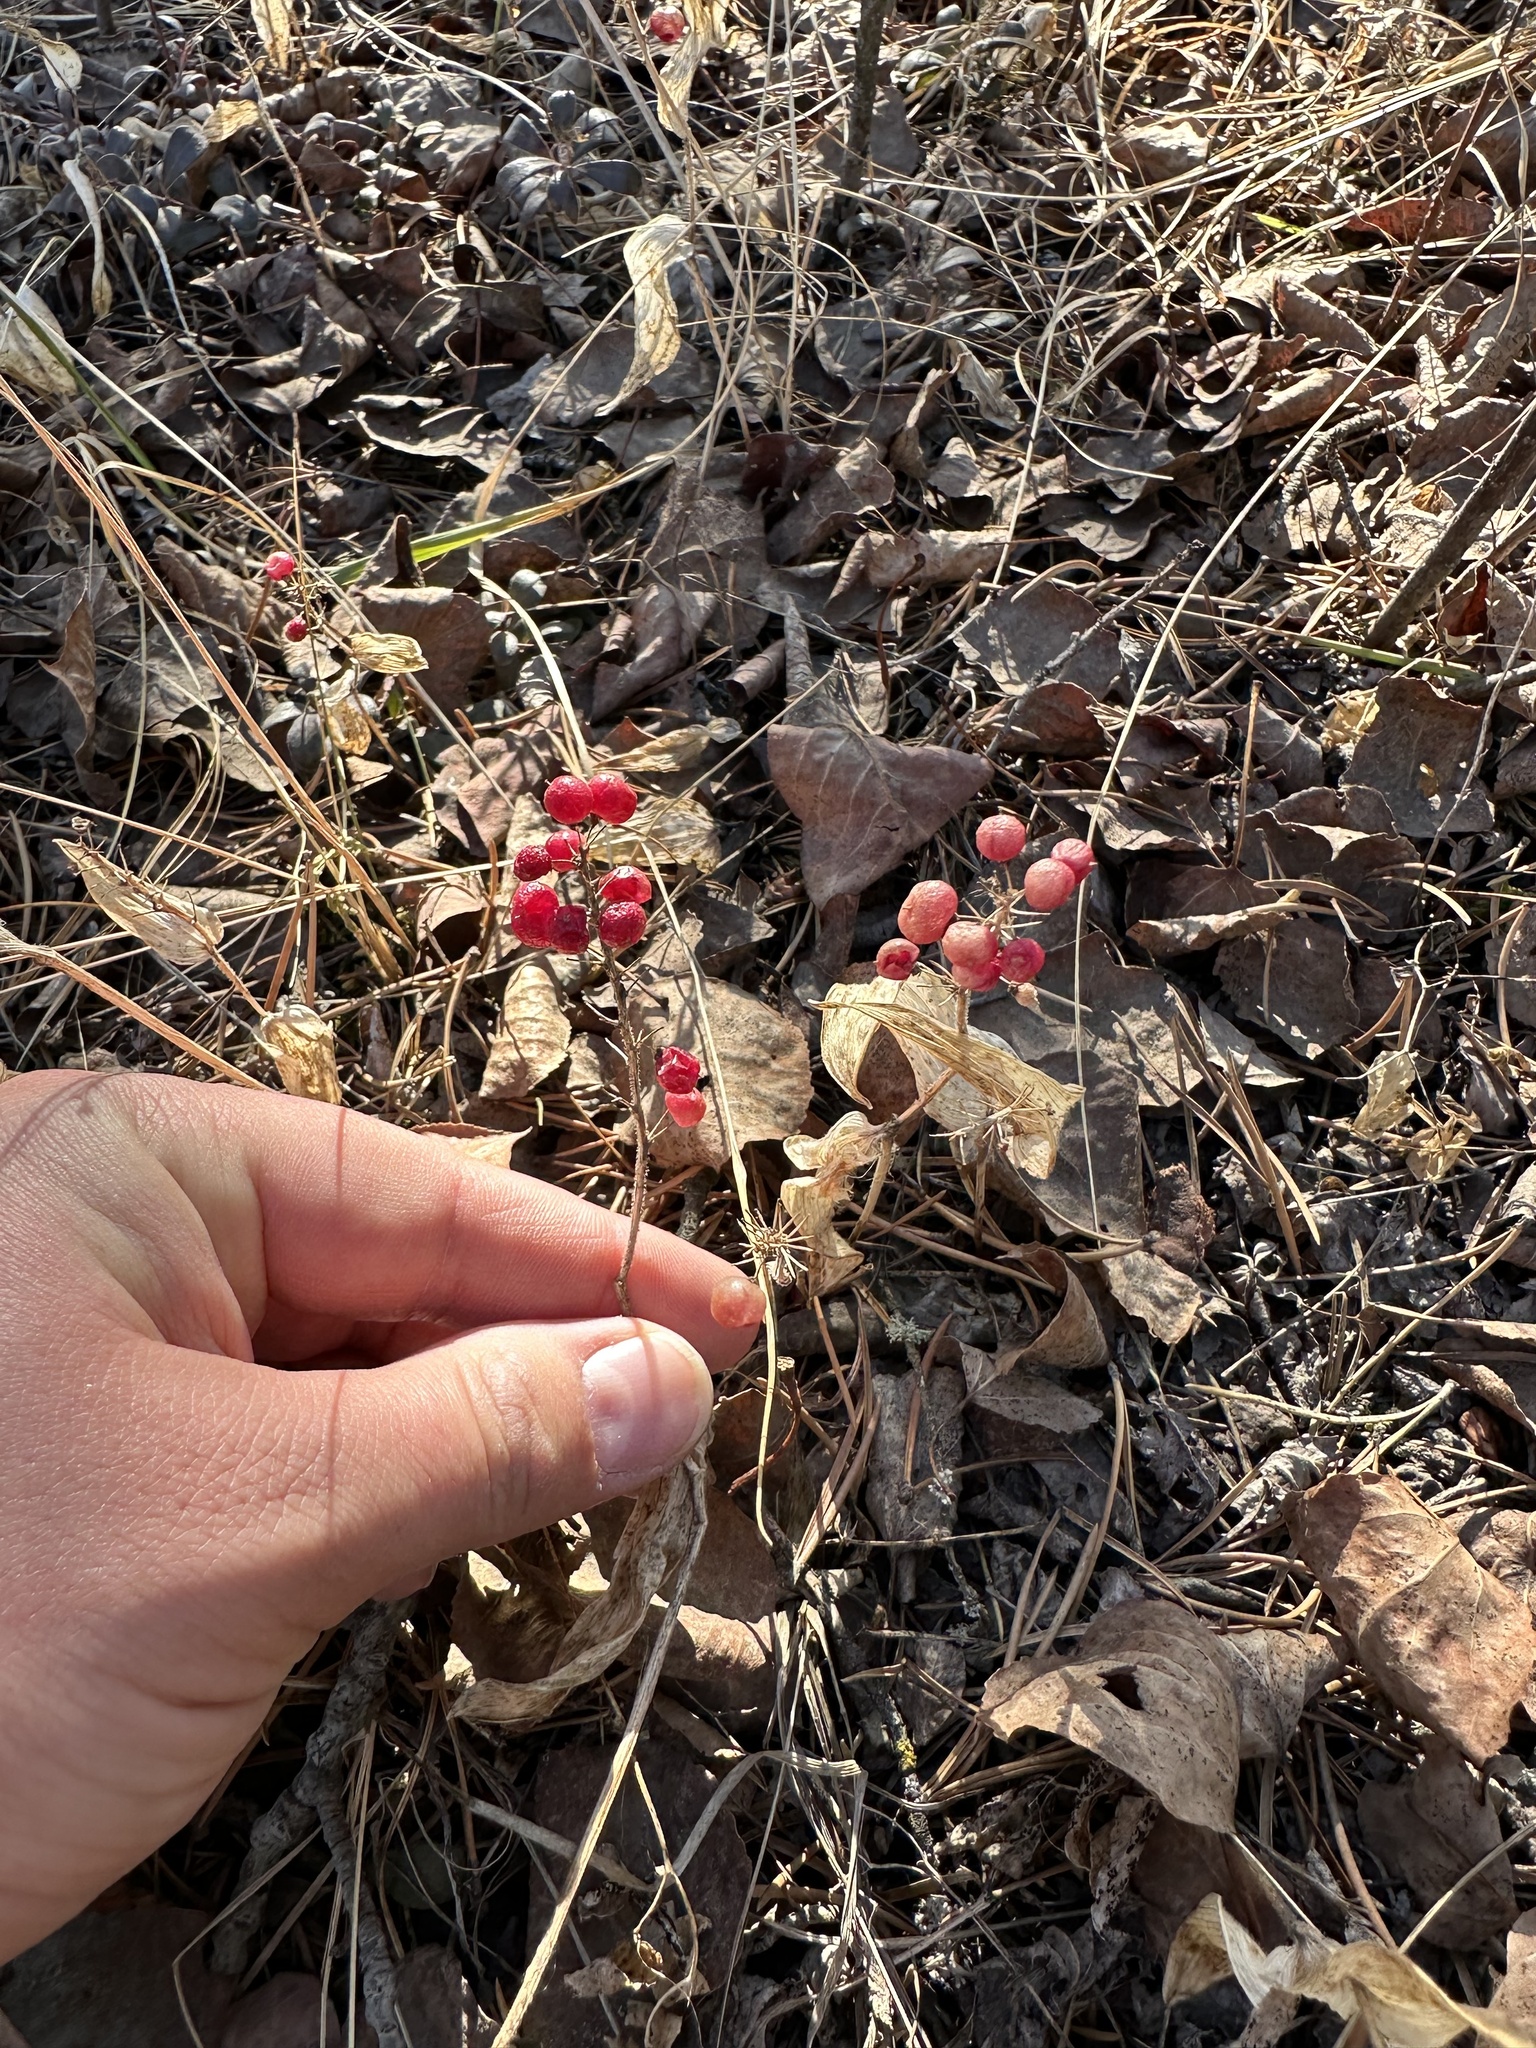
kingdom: Plantae
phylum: Tracheophyta
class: Liliopsida
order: Asparagales
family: Asparagaceae
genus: Maianthemum
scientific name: Maianthemum canadense
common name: False lily-of-the-valley
